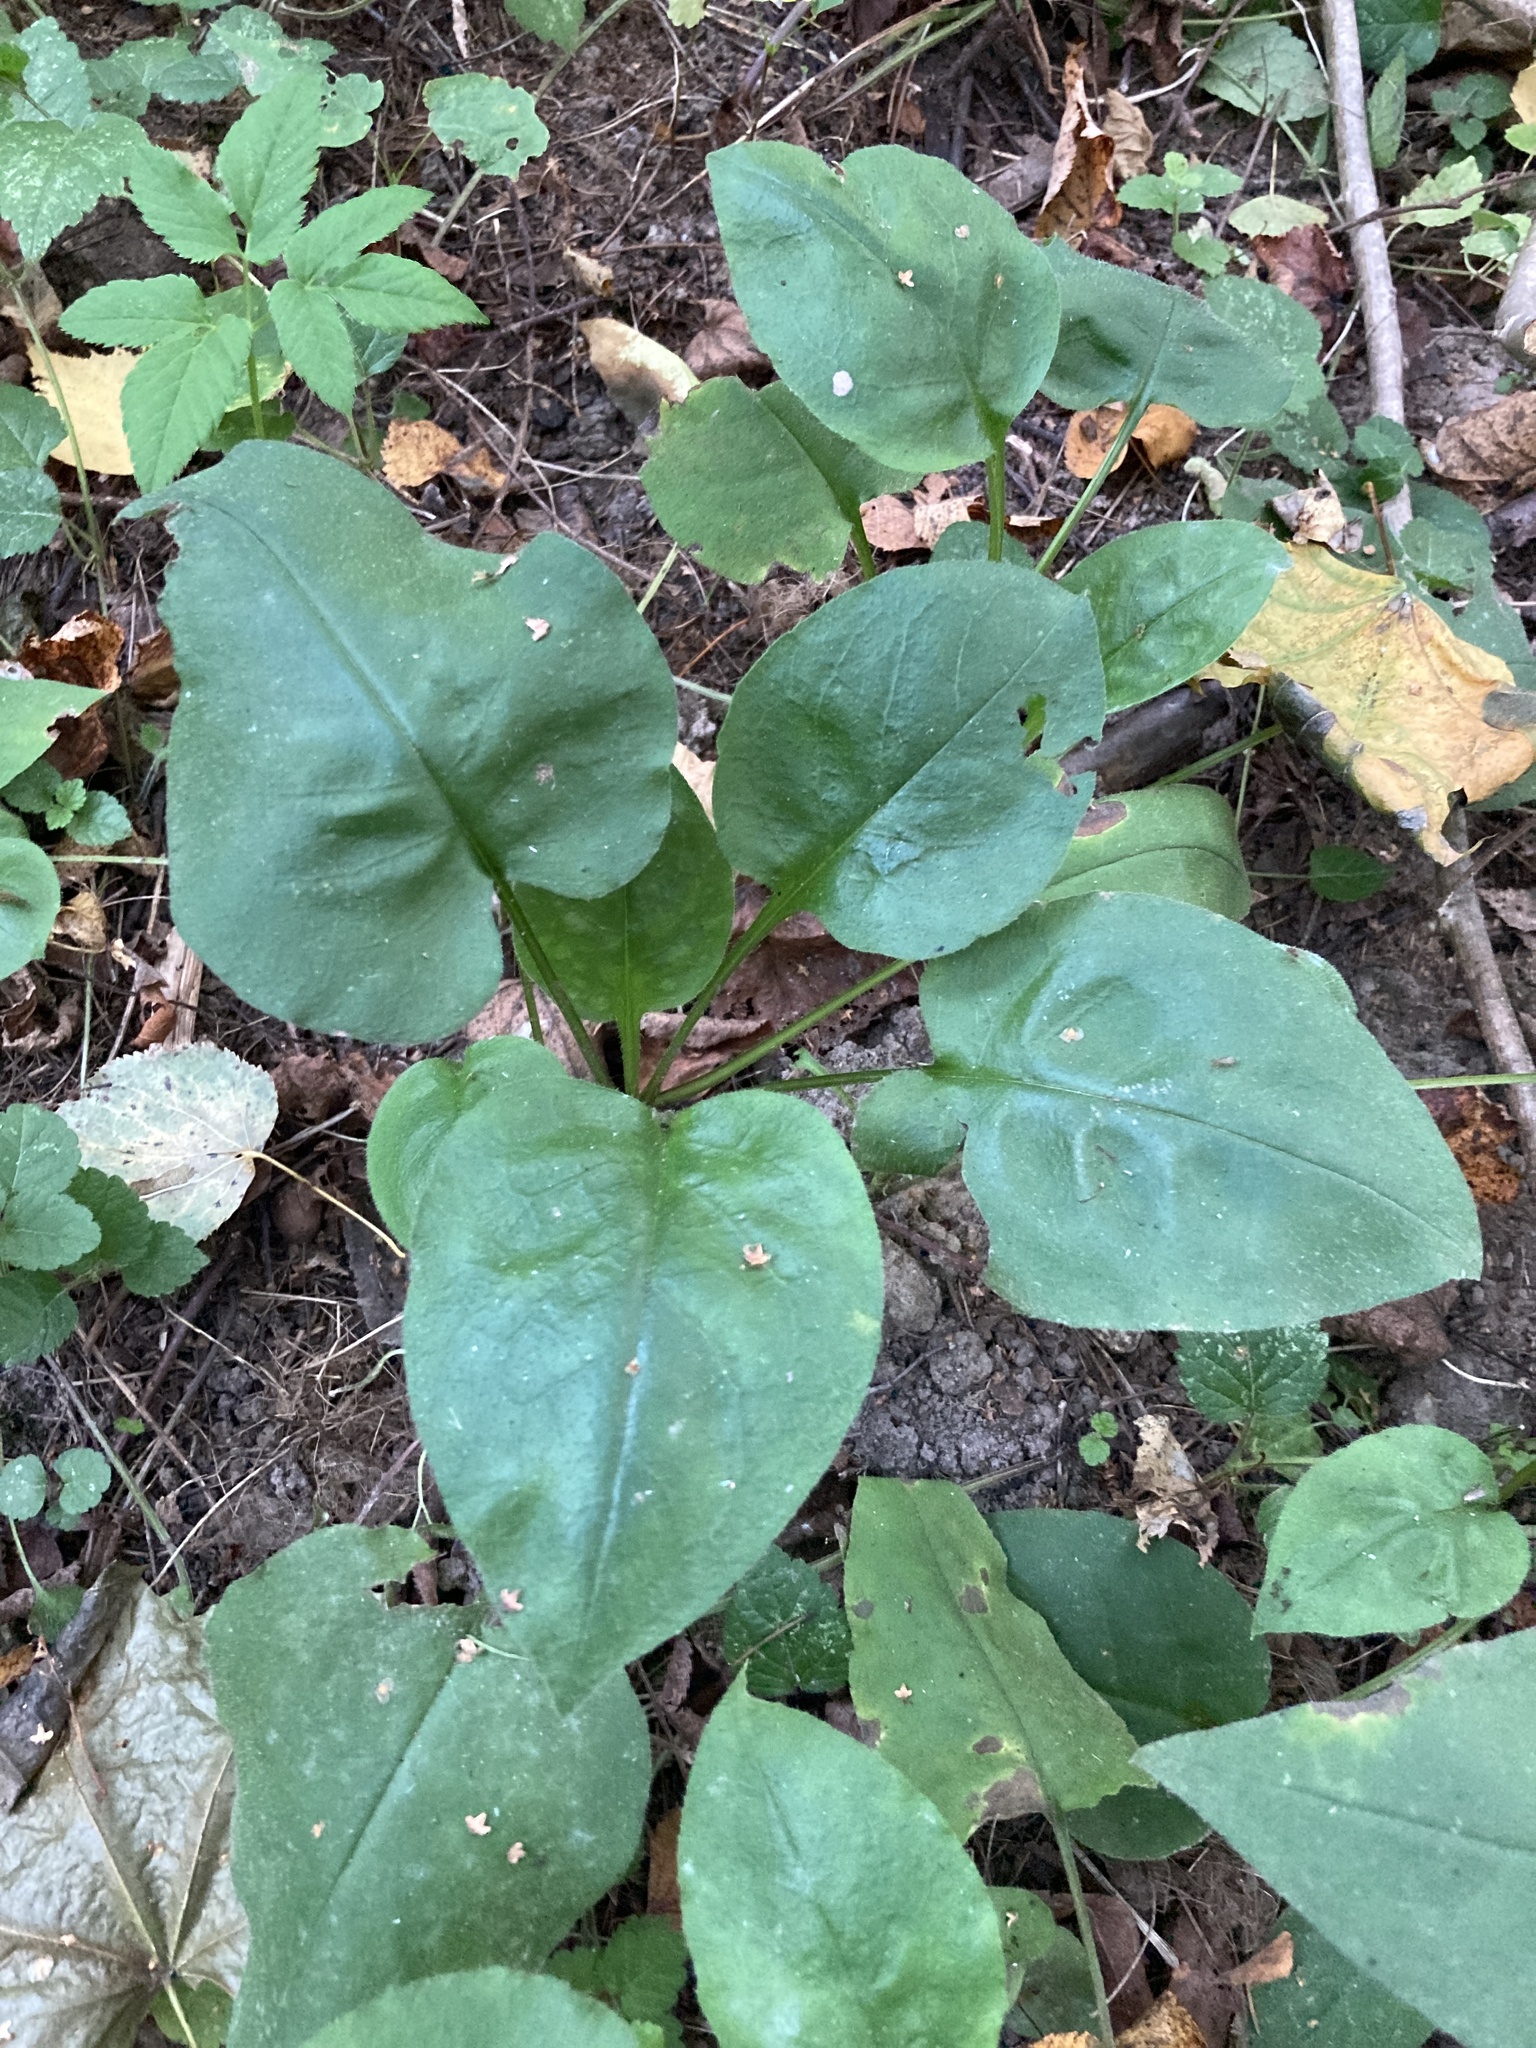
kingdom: Plantae
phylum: Tracheophyta
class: Magnoliopsida
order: Boraginales
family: Boraginaceae
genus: Pulmonaria
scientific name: Pulmonaria obscura
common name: Suffolk lungwort
